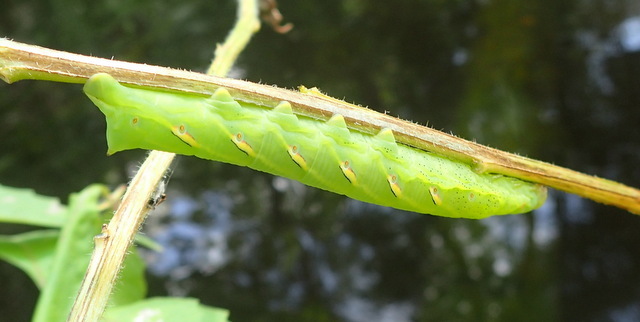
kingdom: Animalia
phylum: Arthropoda
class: Insecta
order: Lepidoptera
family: Sphingidae
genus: Eumorpha
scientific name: Eumorpha fasciatus
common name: Banded sphinx
